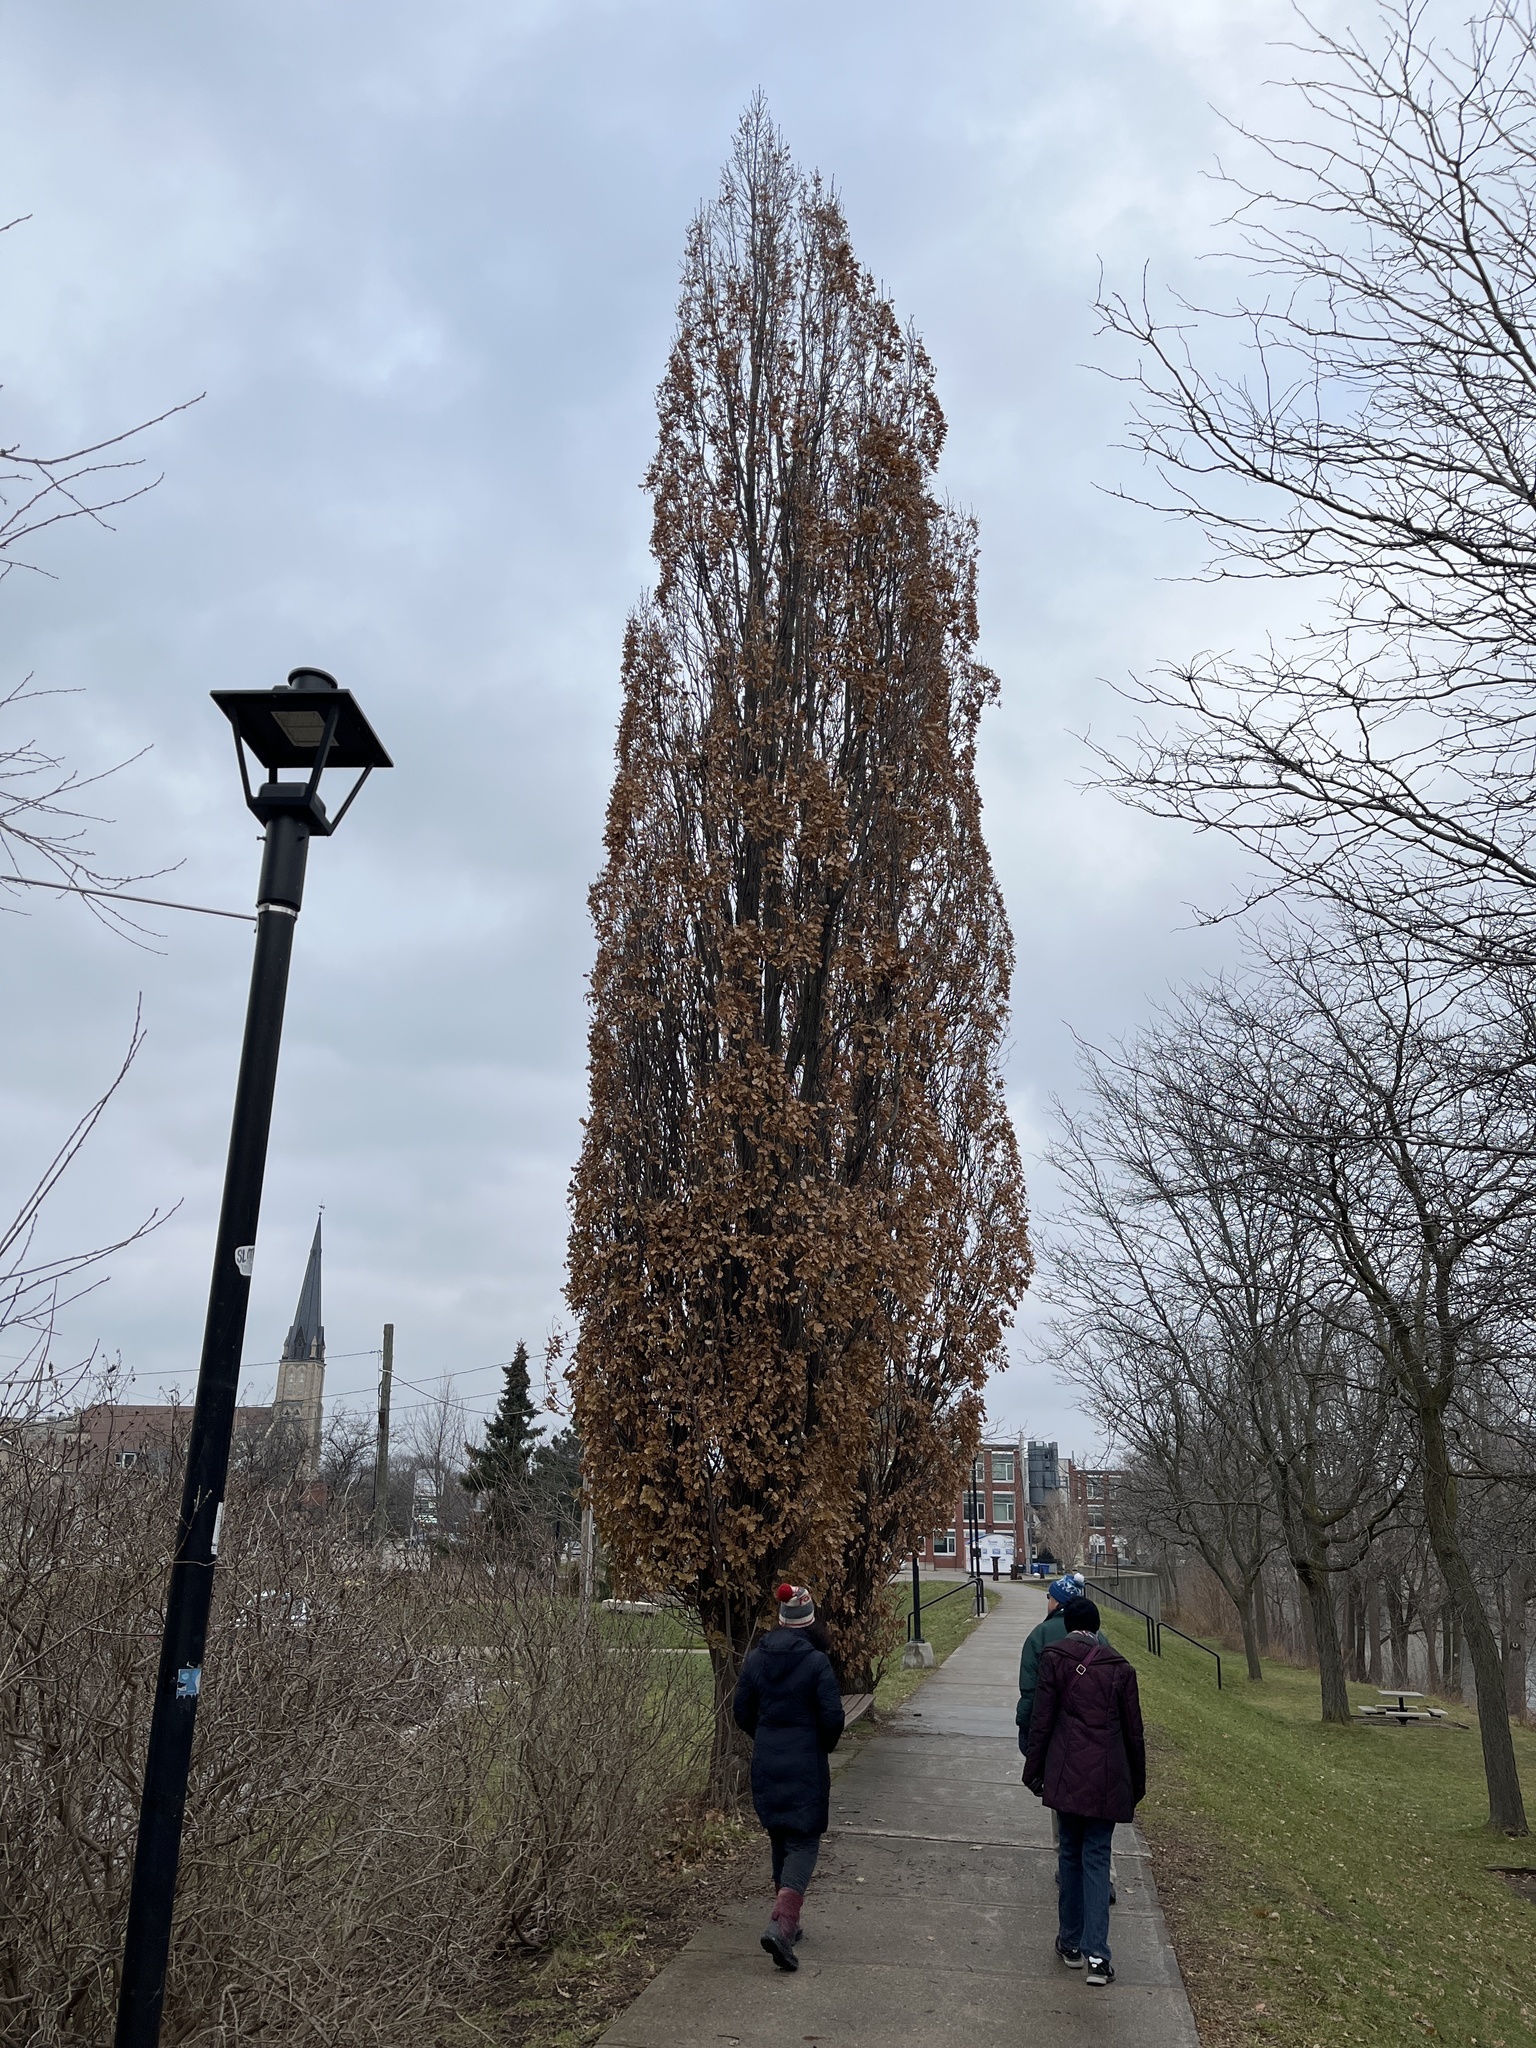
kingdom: Plantae
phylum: Tracheophyta
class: Magnoliopsida
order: Fagales
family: Fagaceae
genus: Quercus
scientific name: Quercus robur
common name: Pedunculate oak
